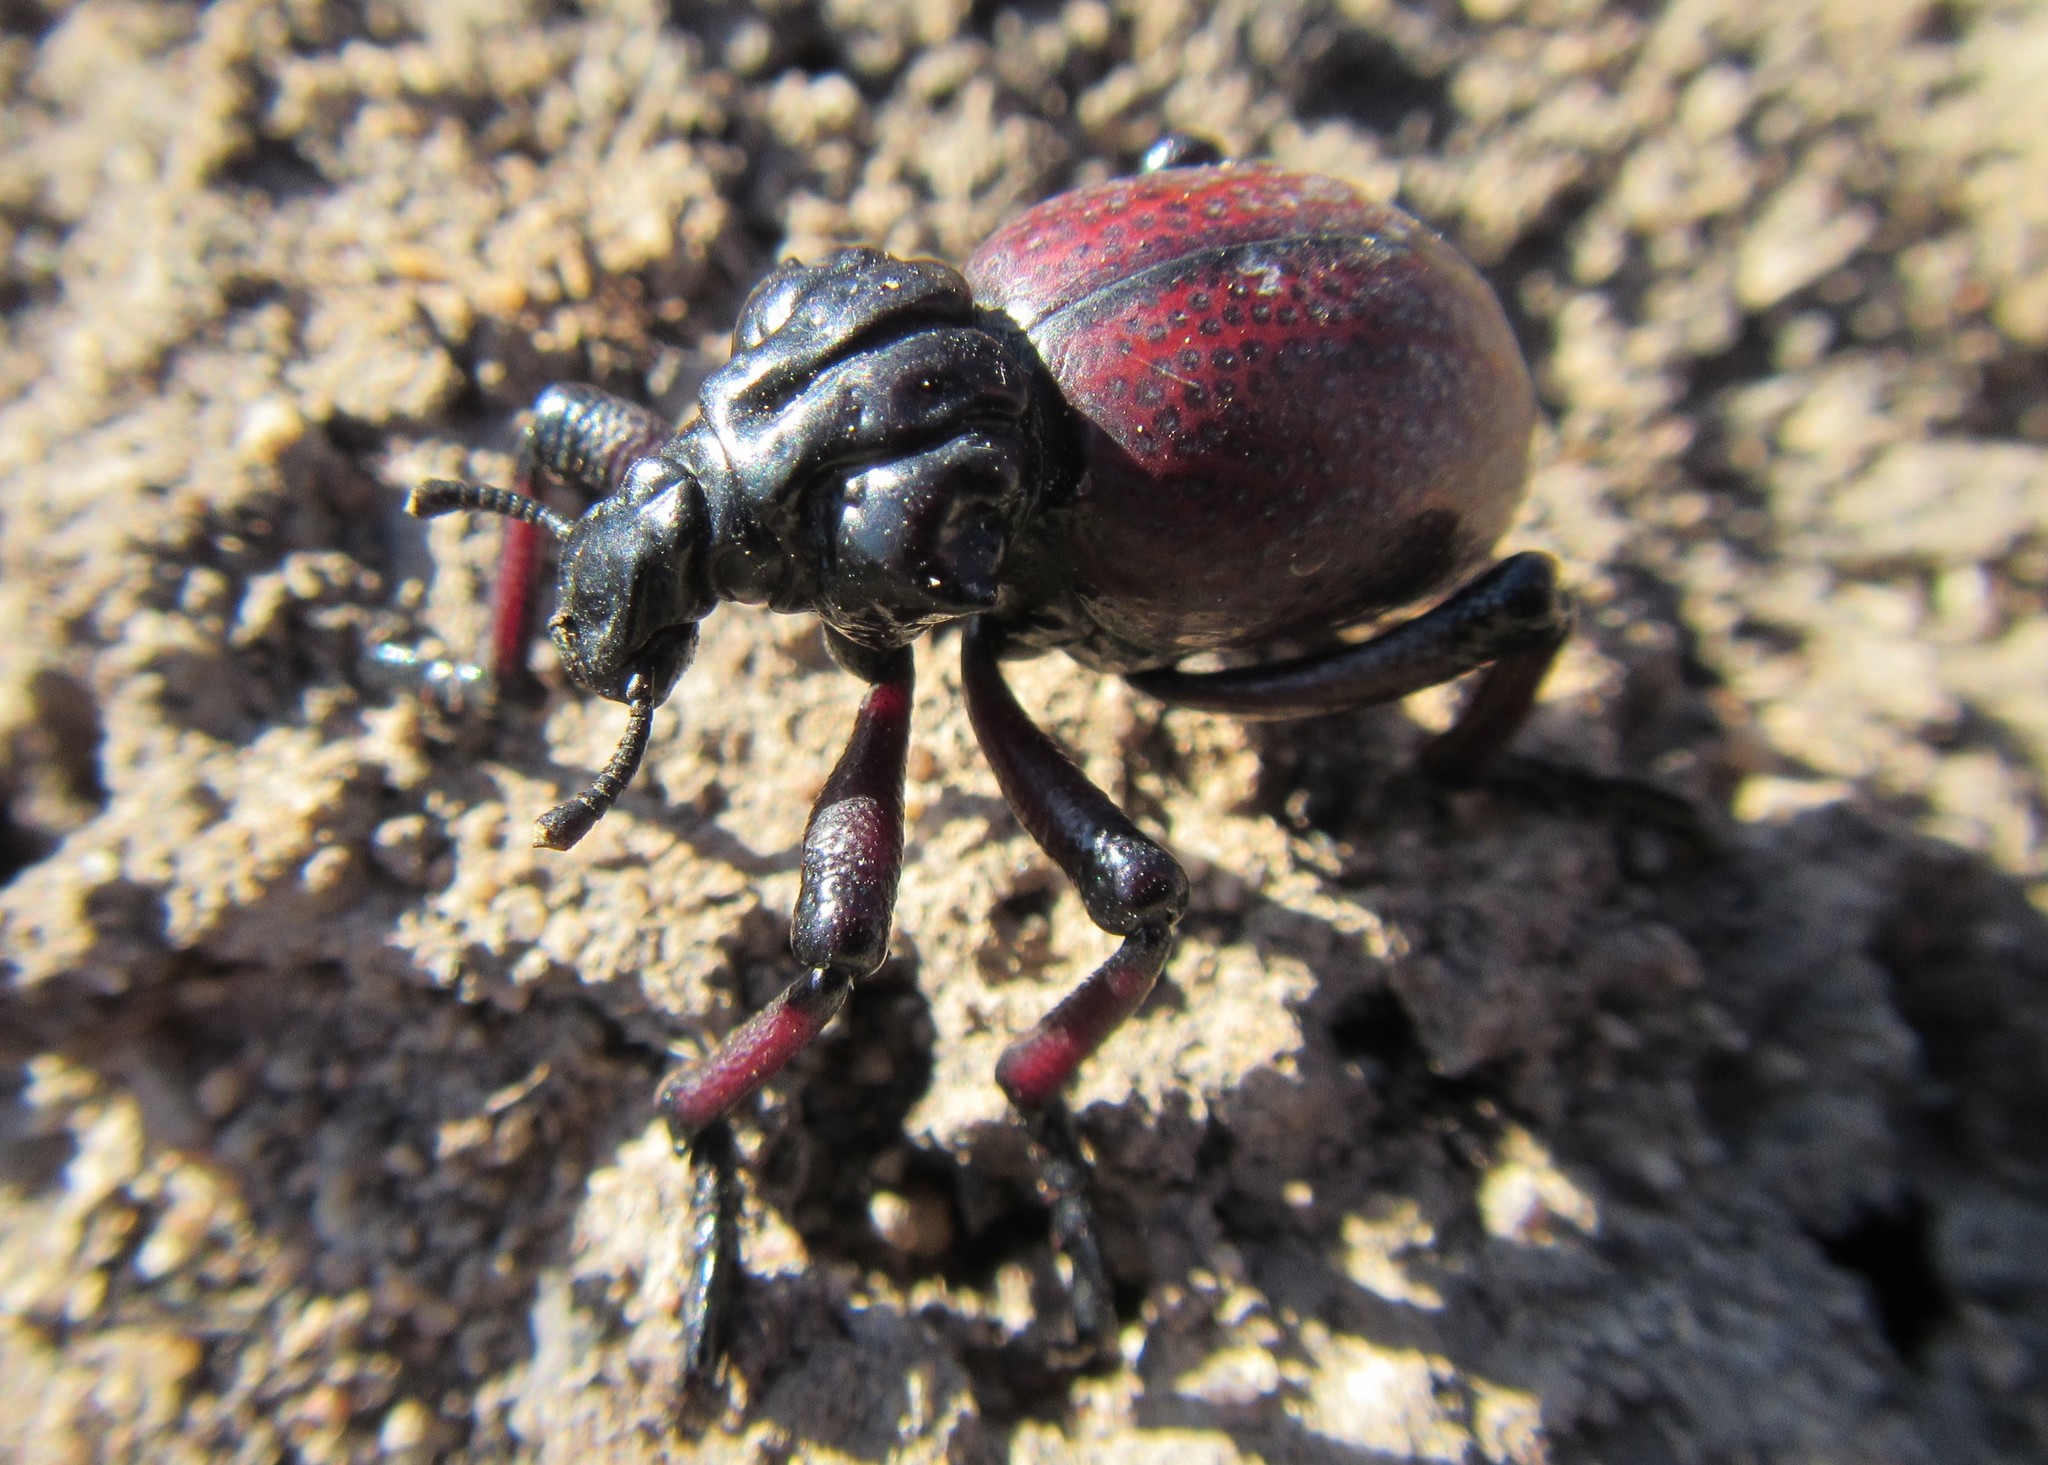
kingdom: Animalia
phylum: Arthropoda
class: Insecta
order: Coleoptera
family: Brachyceridae
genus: Brachycerus
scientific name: Brachycerus obesus
